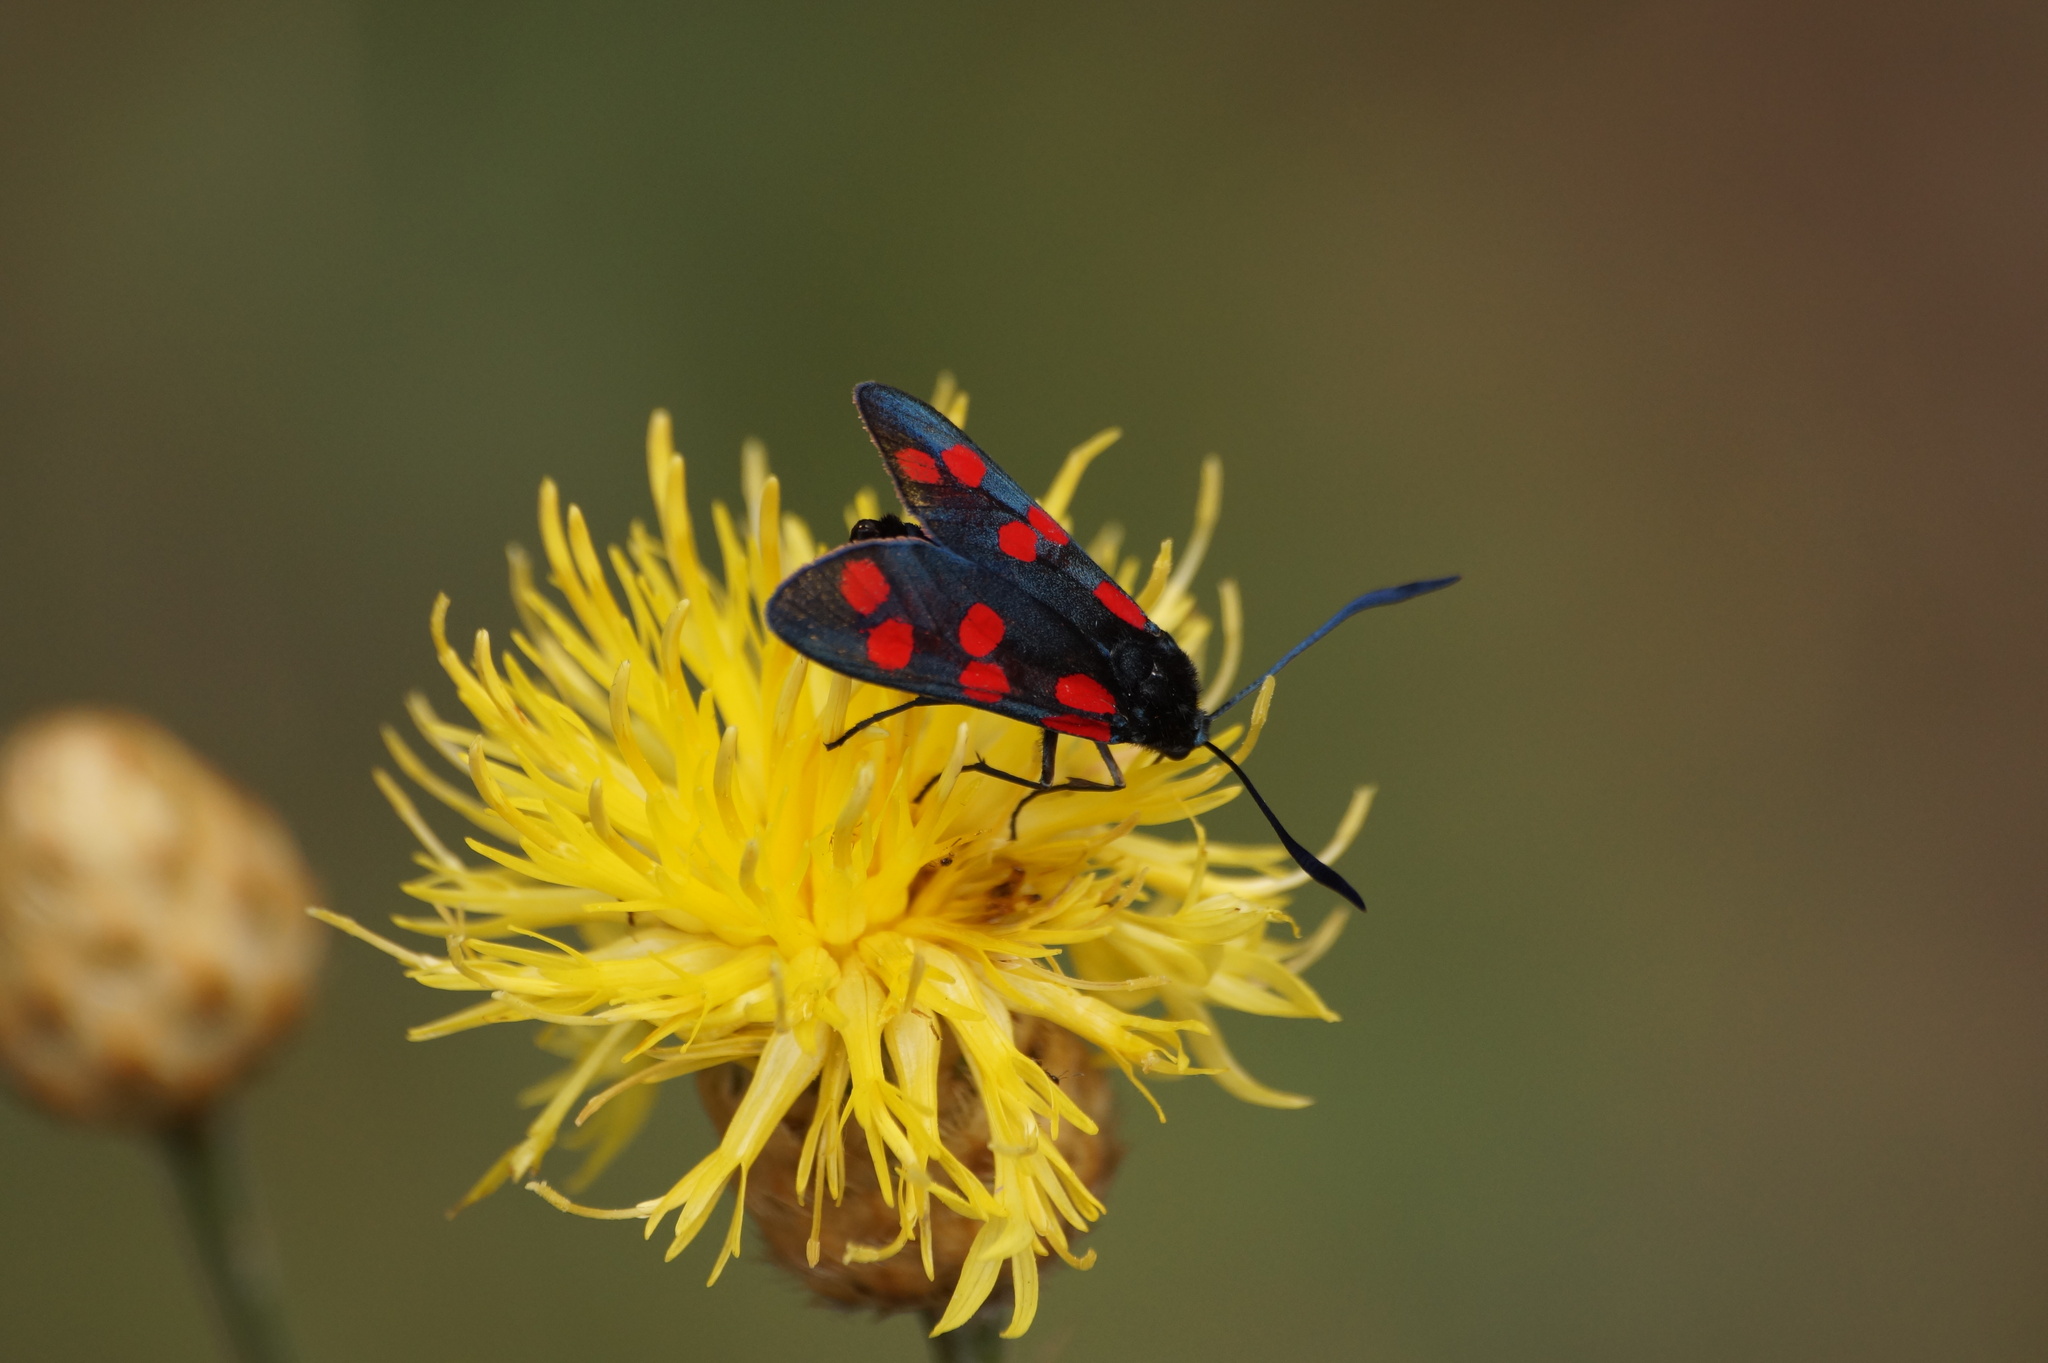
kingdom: Animalia
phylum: Arthropoda
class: Insecta
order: Lepidoptera
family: Zygaenidae
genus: Zygaena
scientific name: Zygaena filipendulae
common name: Six-spot burnet
